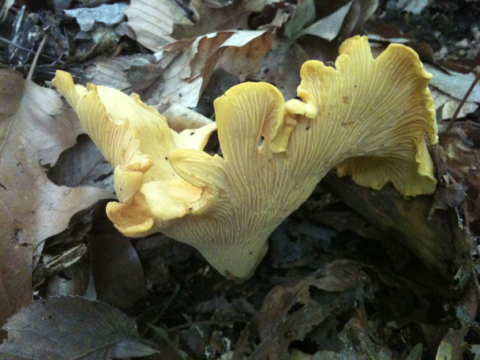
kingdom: Fungi
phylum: Basidiomycota
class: Agaricomycetes
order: Cantharellales
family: Hydnaceae
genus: Cantharellus
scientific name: Cantharellus lateritius
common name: Smooth chanterelle
